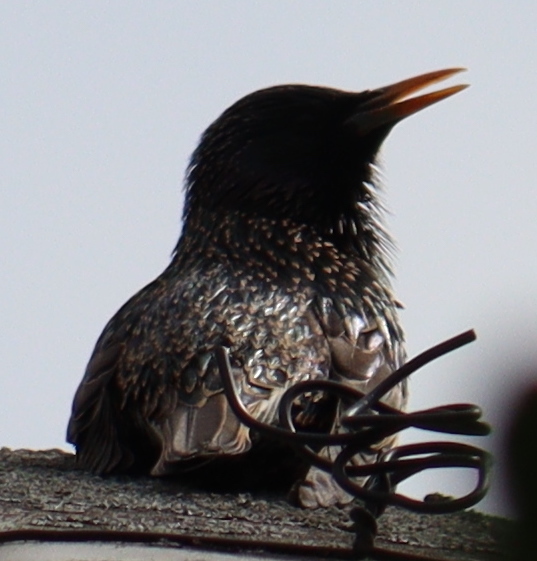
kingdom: Animalia
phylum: Chordata
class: Aves
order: Passeriformes
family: Sturnidae
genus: Sturnus
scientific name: Sturnus vulgaris
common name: Common starling
